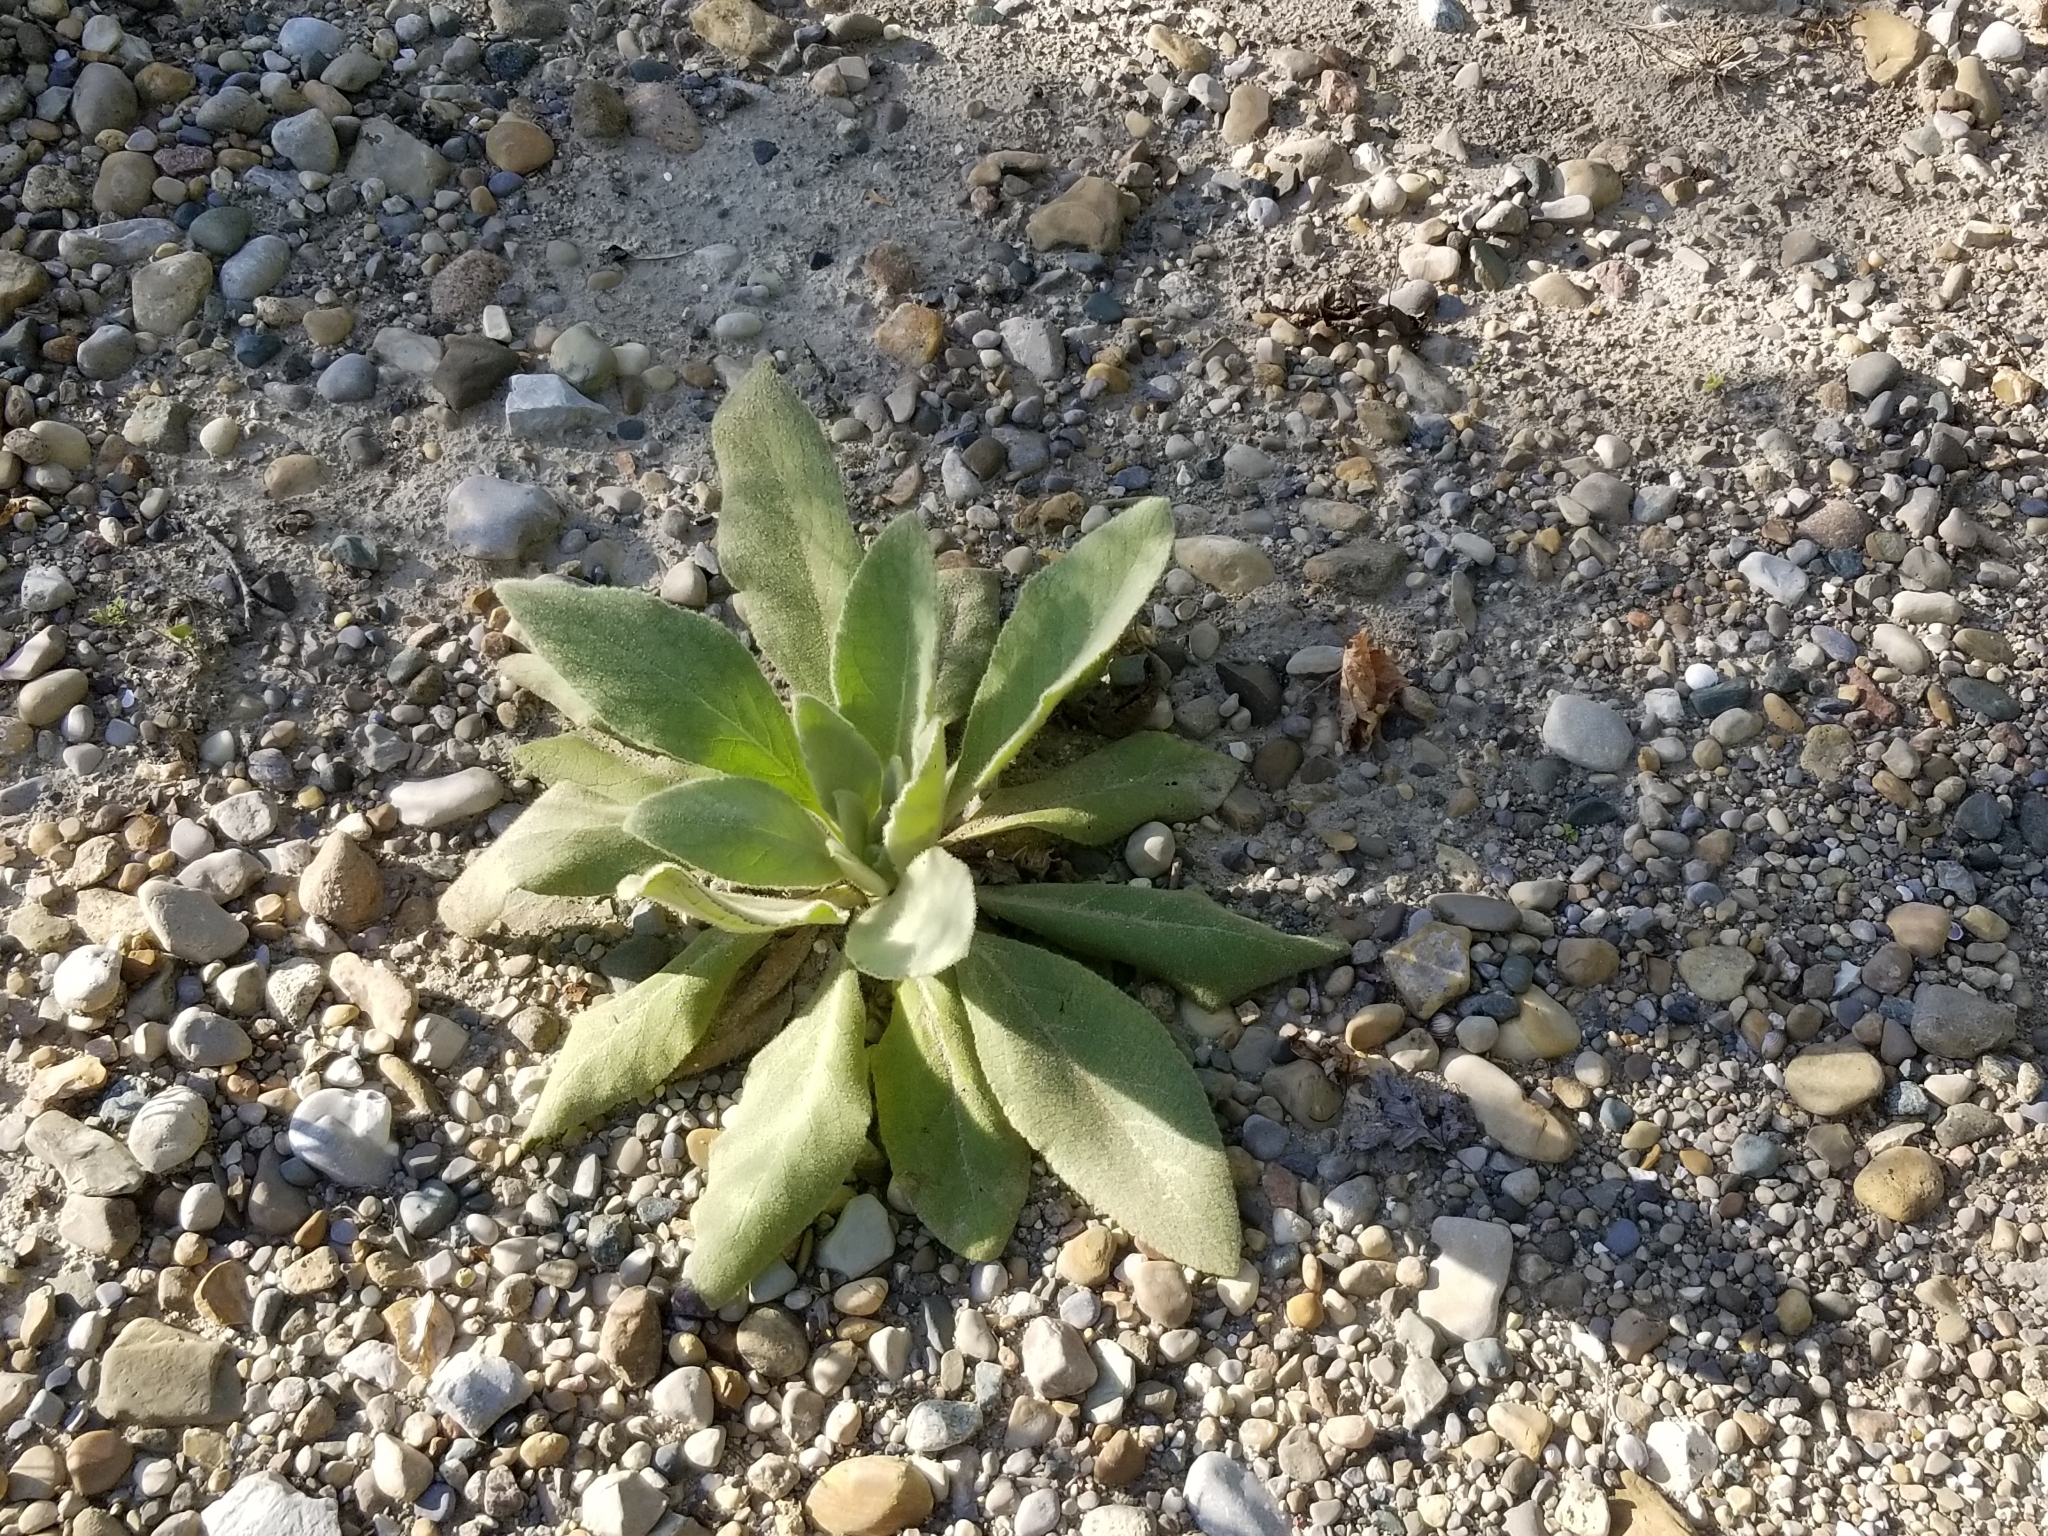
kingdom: Plantae
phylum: Tracheophyta
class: Magnoliopsida
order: Lamiales
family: Scrophulariaceae
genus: Verbascum
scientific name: Verbascum thapsus
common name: Common mullein
